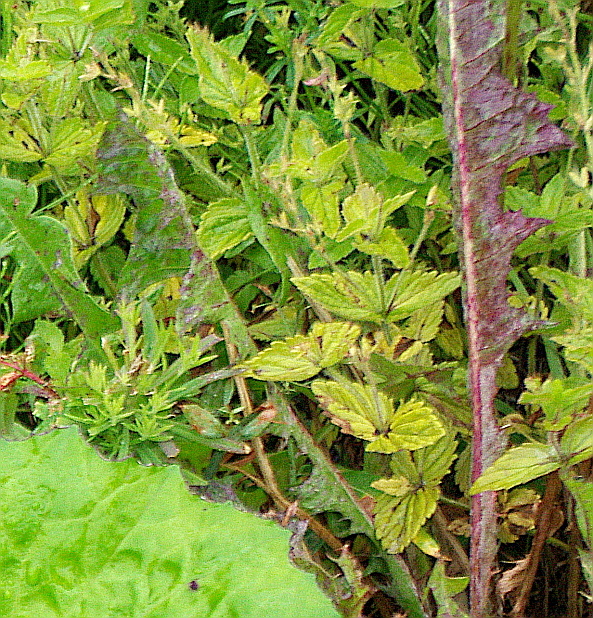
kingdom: Plantae
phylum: Tracheophyta
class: Magnoliopsida
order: Lamiales
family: Plantaginaceae
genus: Veronica
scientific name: Veronica chamaedrys
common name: Germander speedwell
